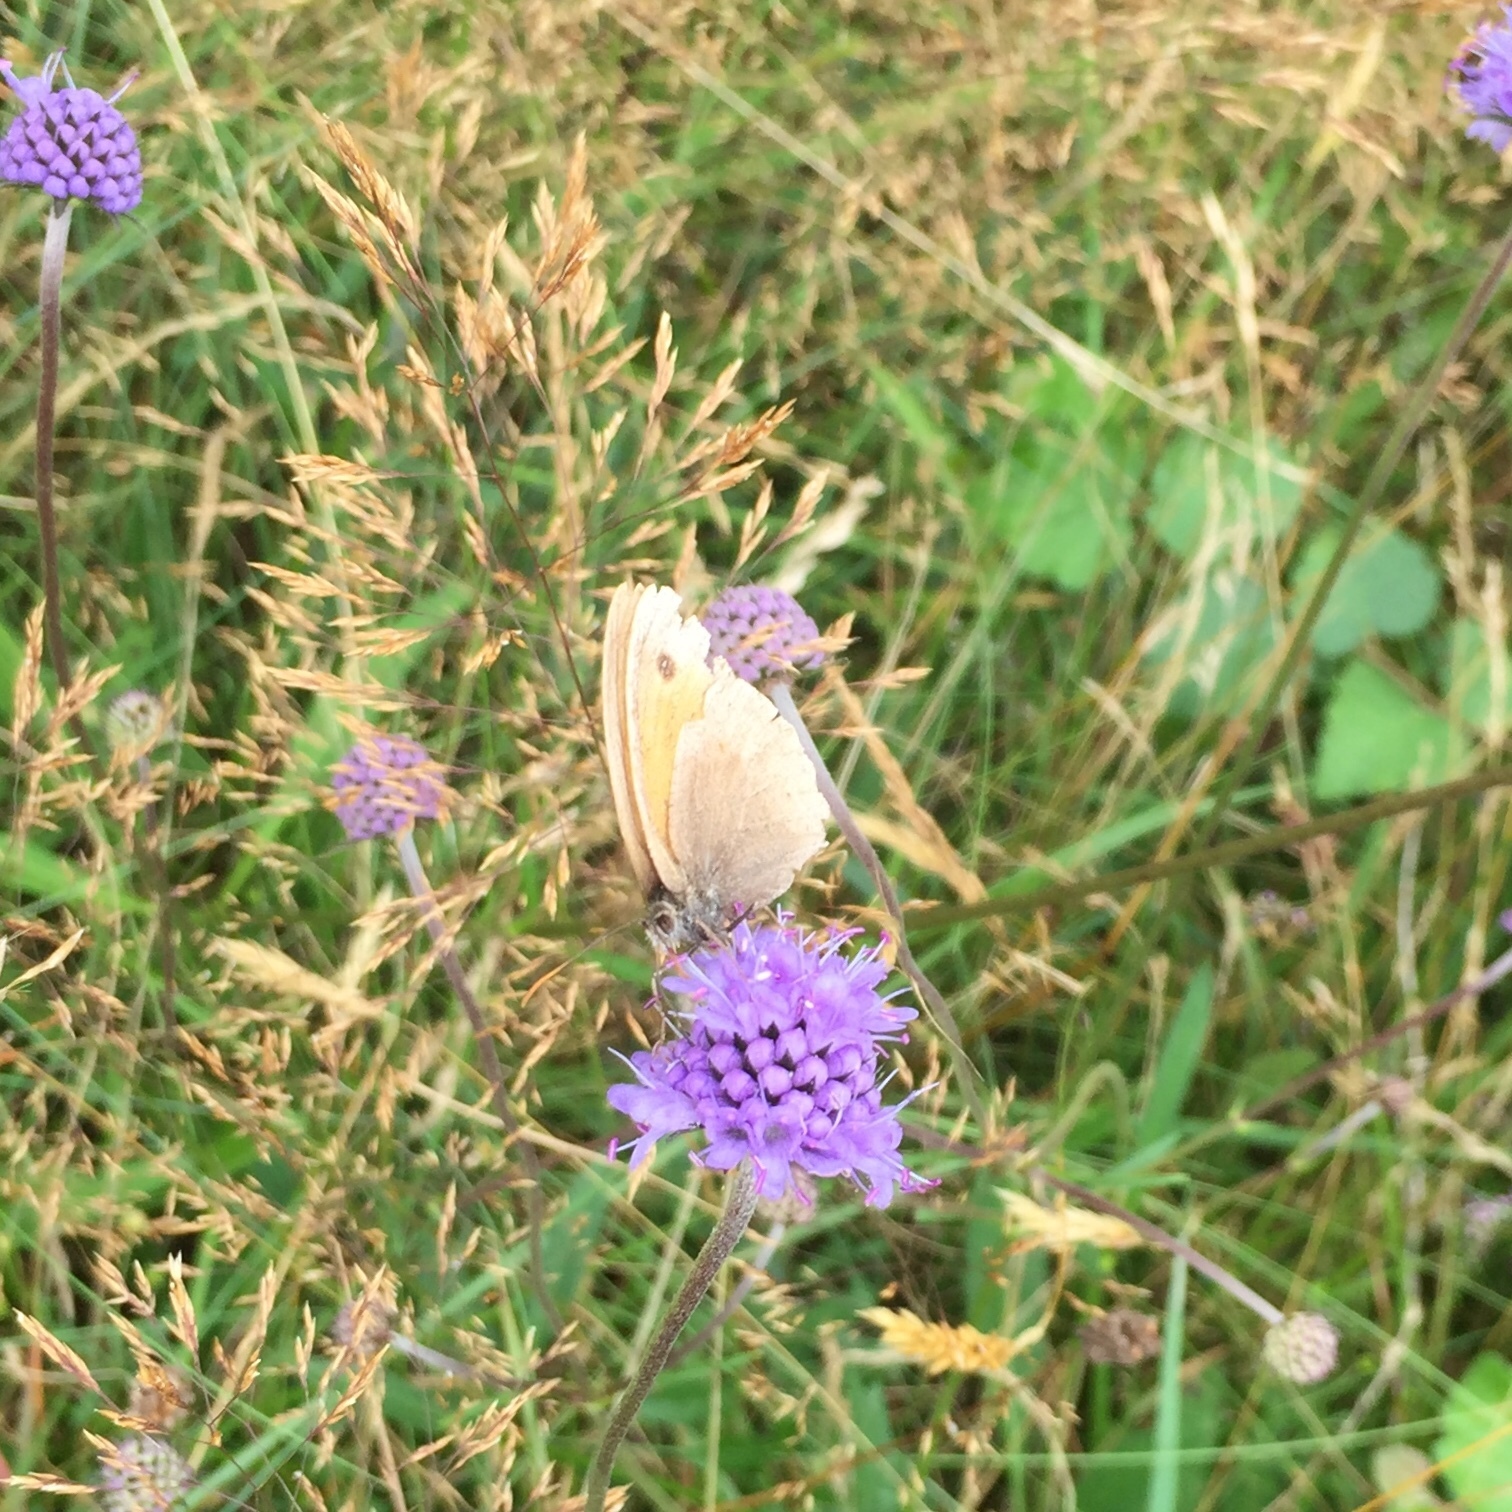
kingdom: Animalia
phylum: Arthropoda
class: Insecta
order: Lepidoptera
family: Nymphalidae
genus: Maniola
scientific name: Maniola jurtina
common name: Meadow brown
